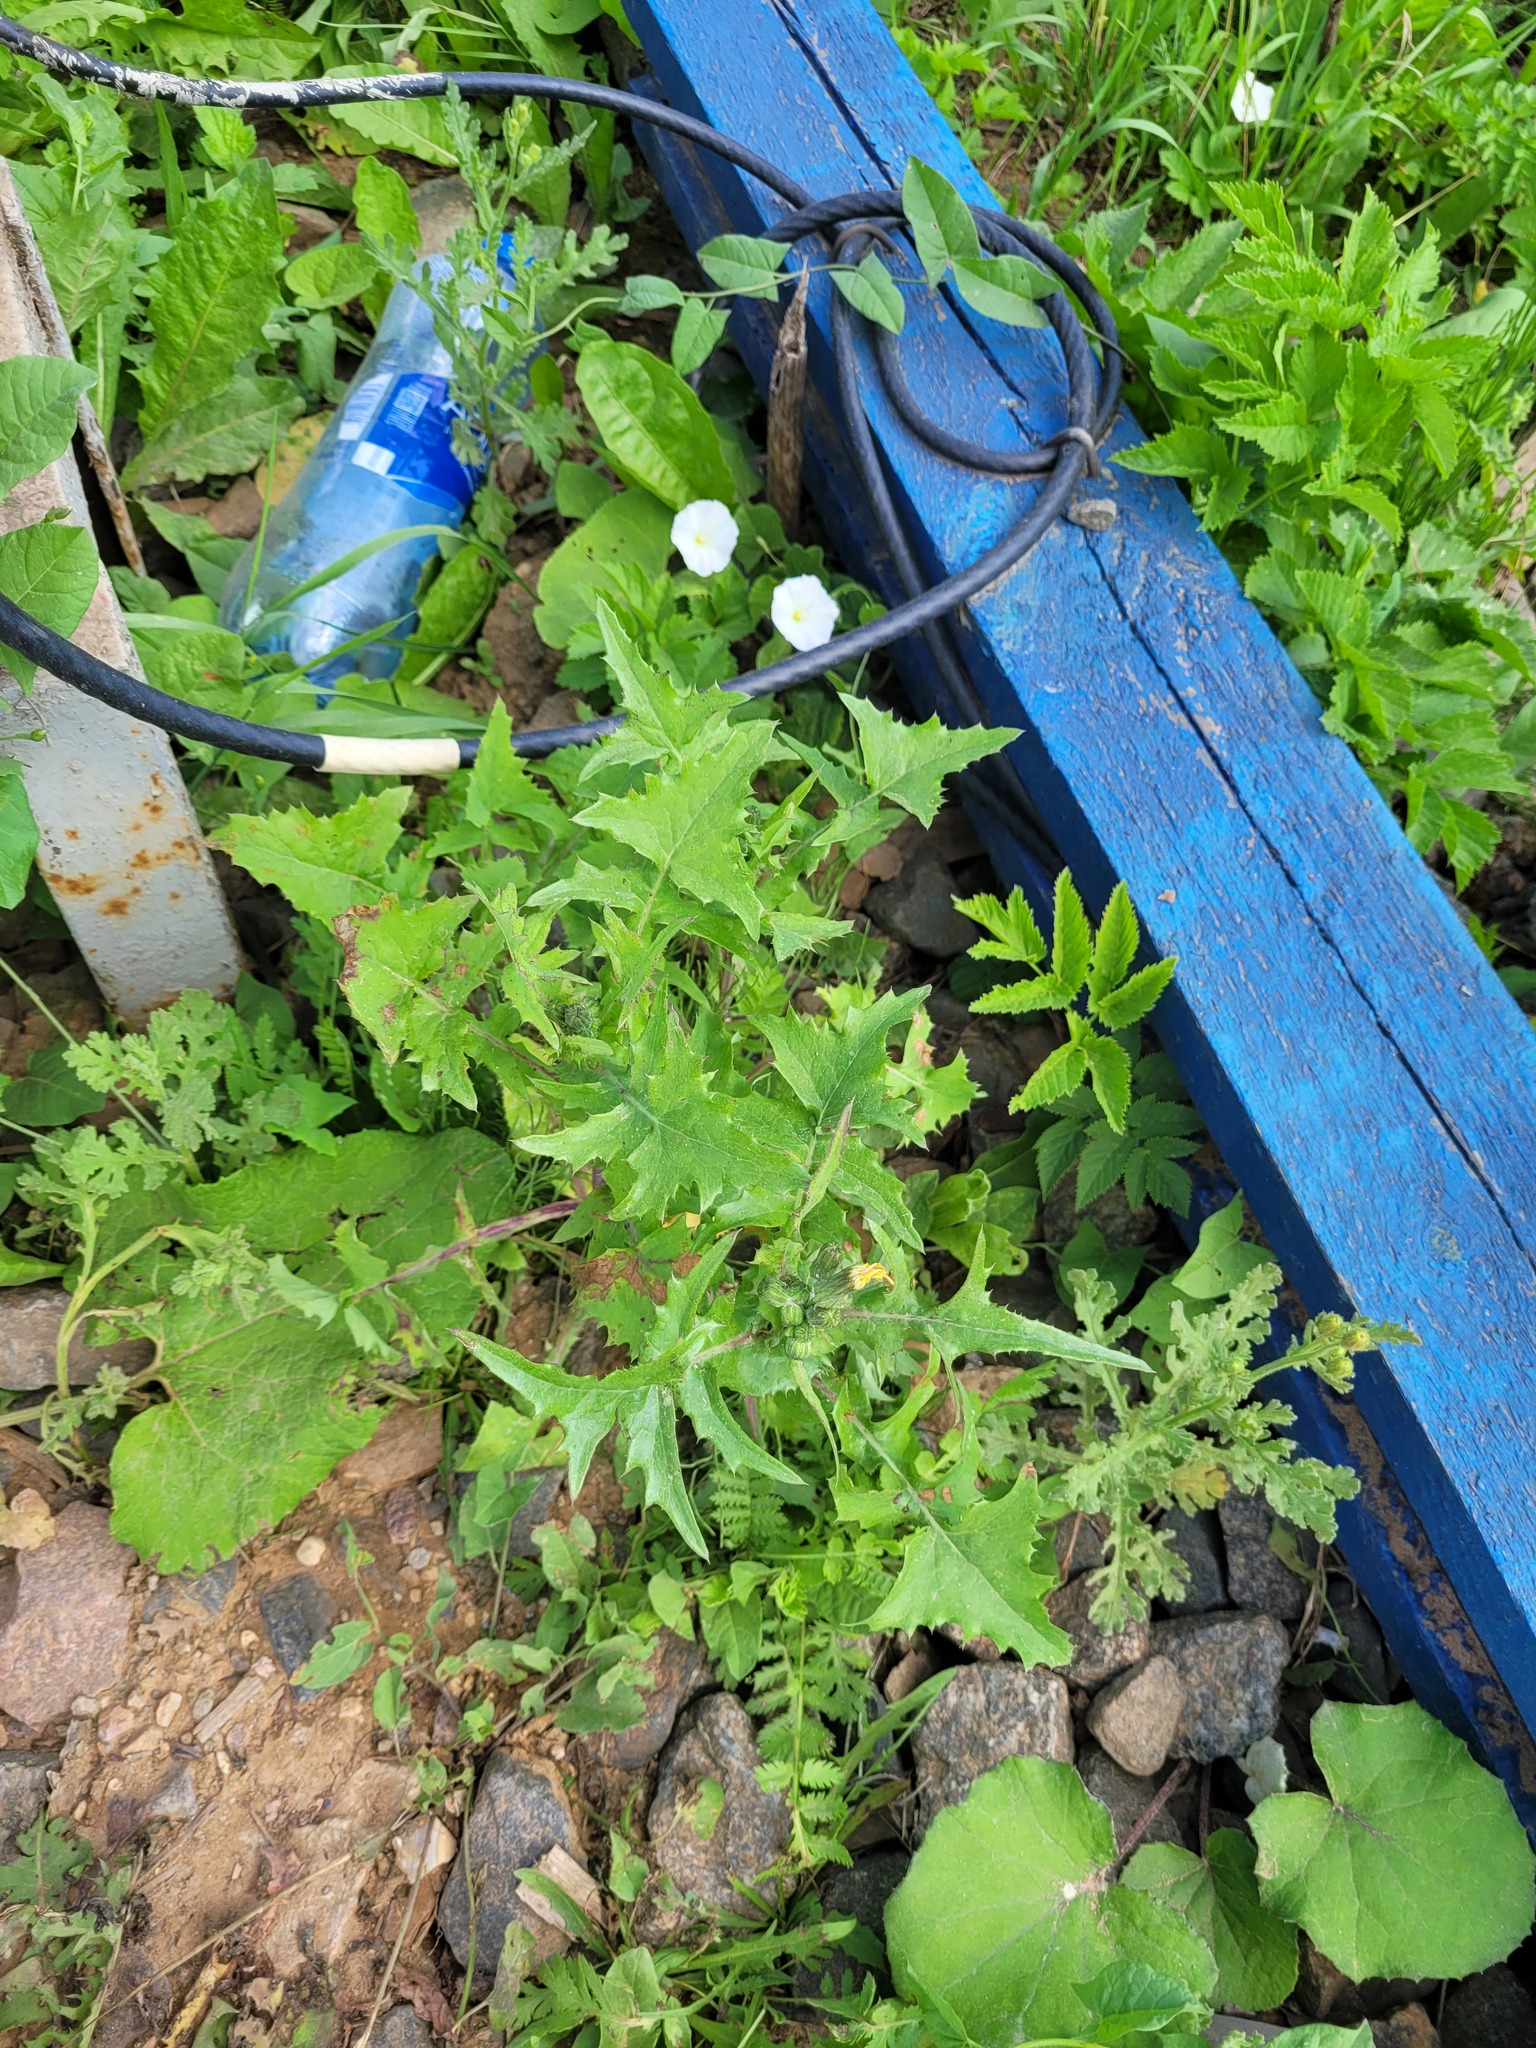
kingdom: Plantae
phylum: Tracheophyta
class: Magnoliopsida
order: Asterales
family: Asteraceae
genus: Sonchus
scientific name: Sonchus oleraceus
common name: Common sowthistle
